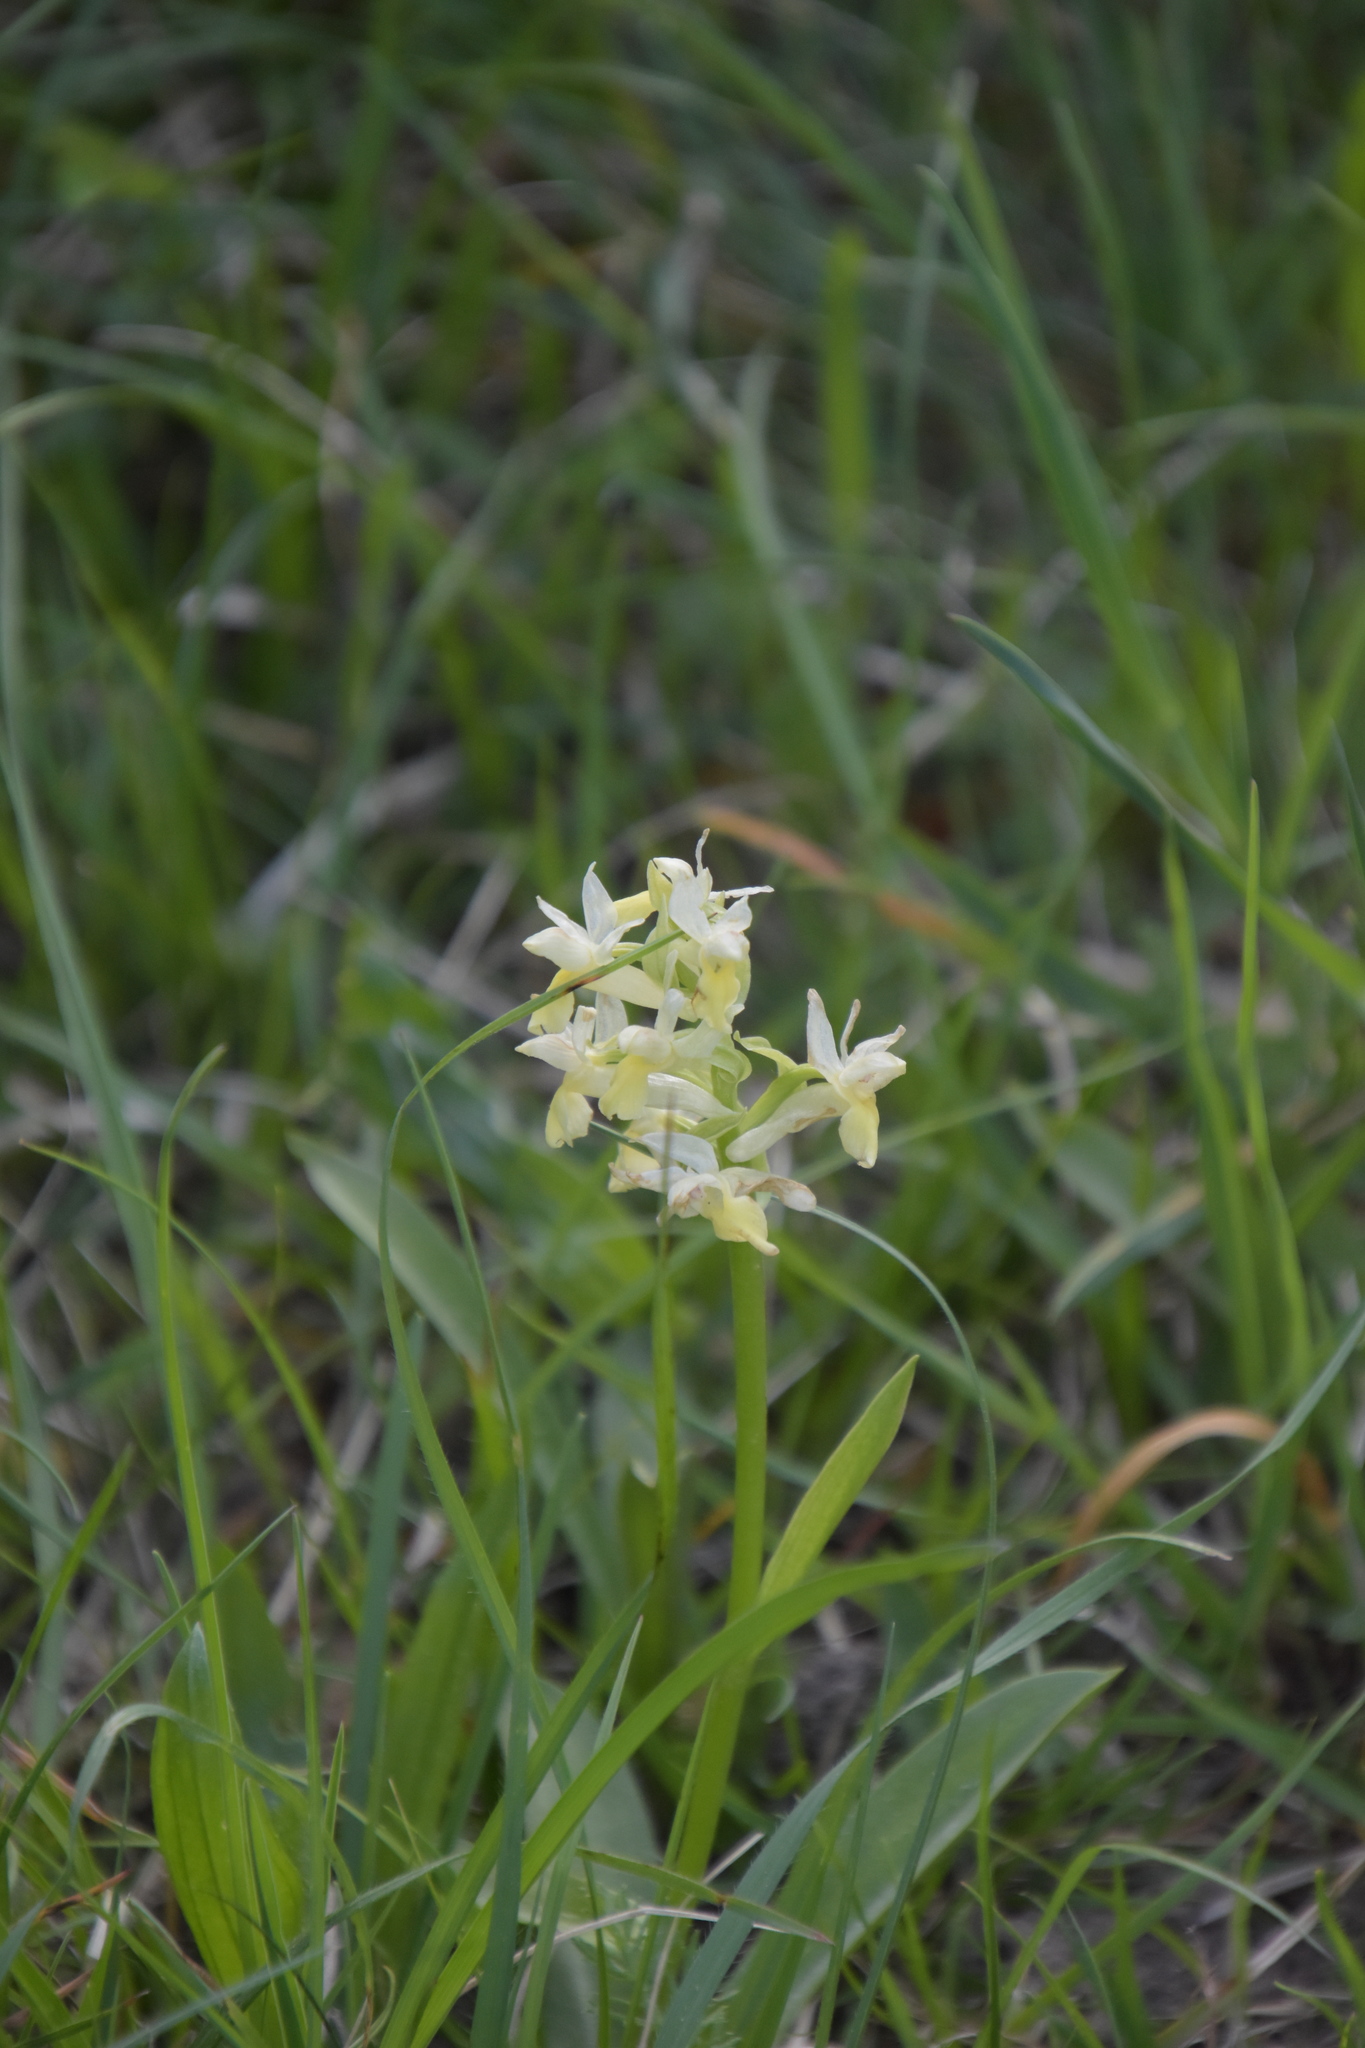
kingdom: Plantae
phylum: Tracheophyta
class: Liliopsida
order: Asparagales
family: Orchidaceae
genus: Dactylorhiza
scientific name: Dactylorhiza sambucina
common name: Elder-flowered orchid
